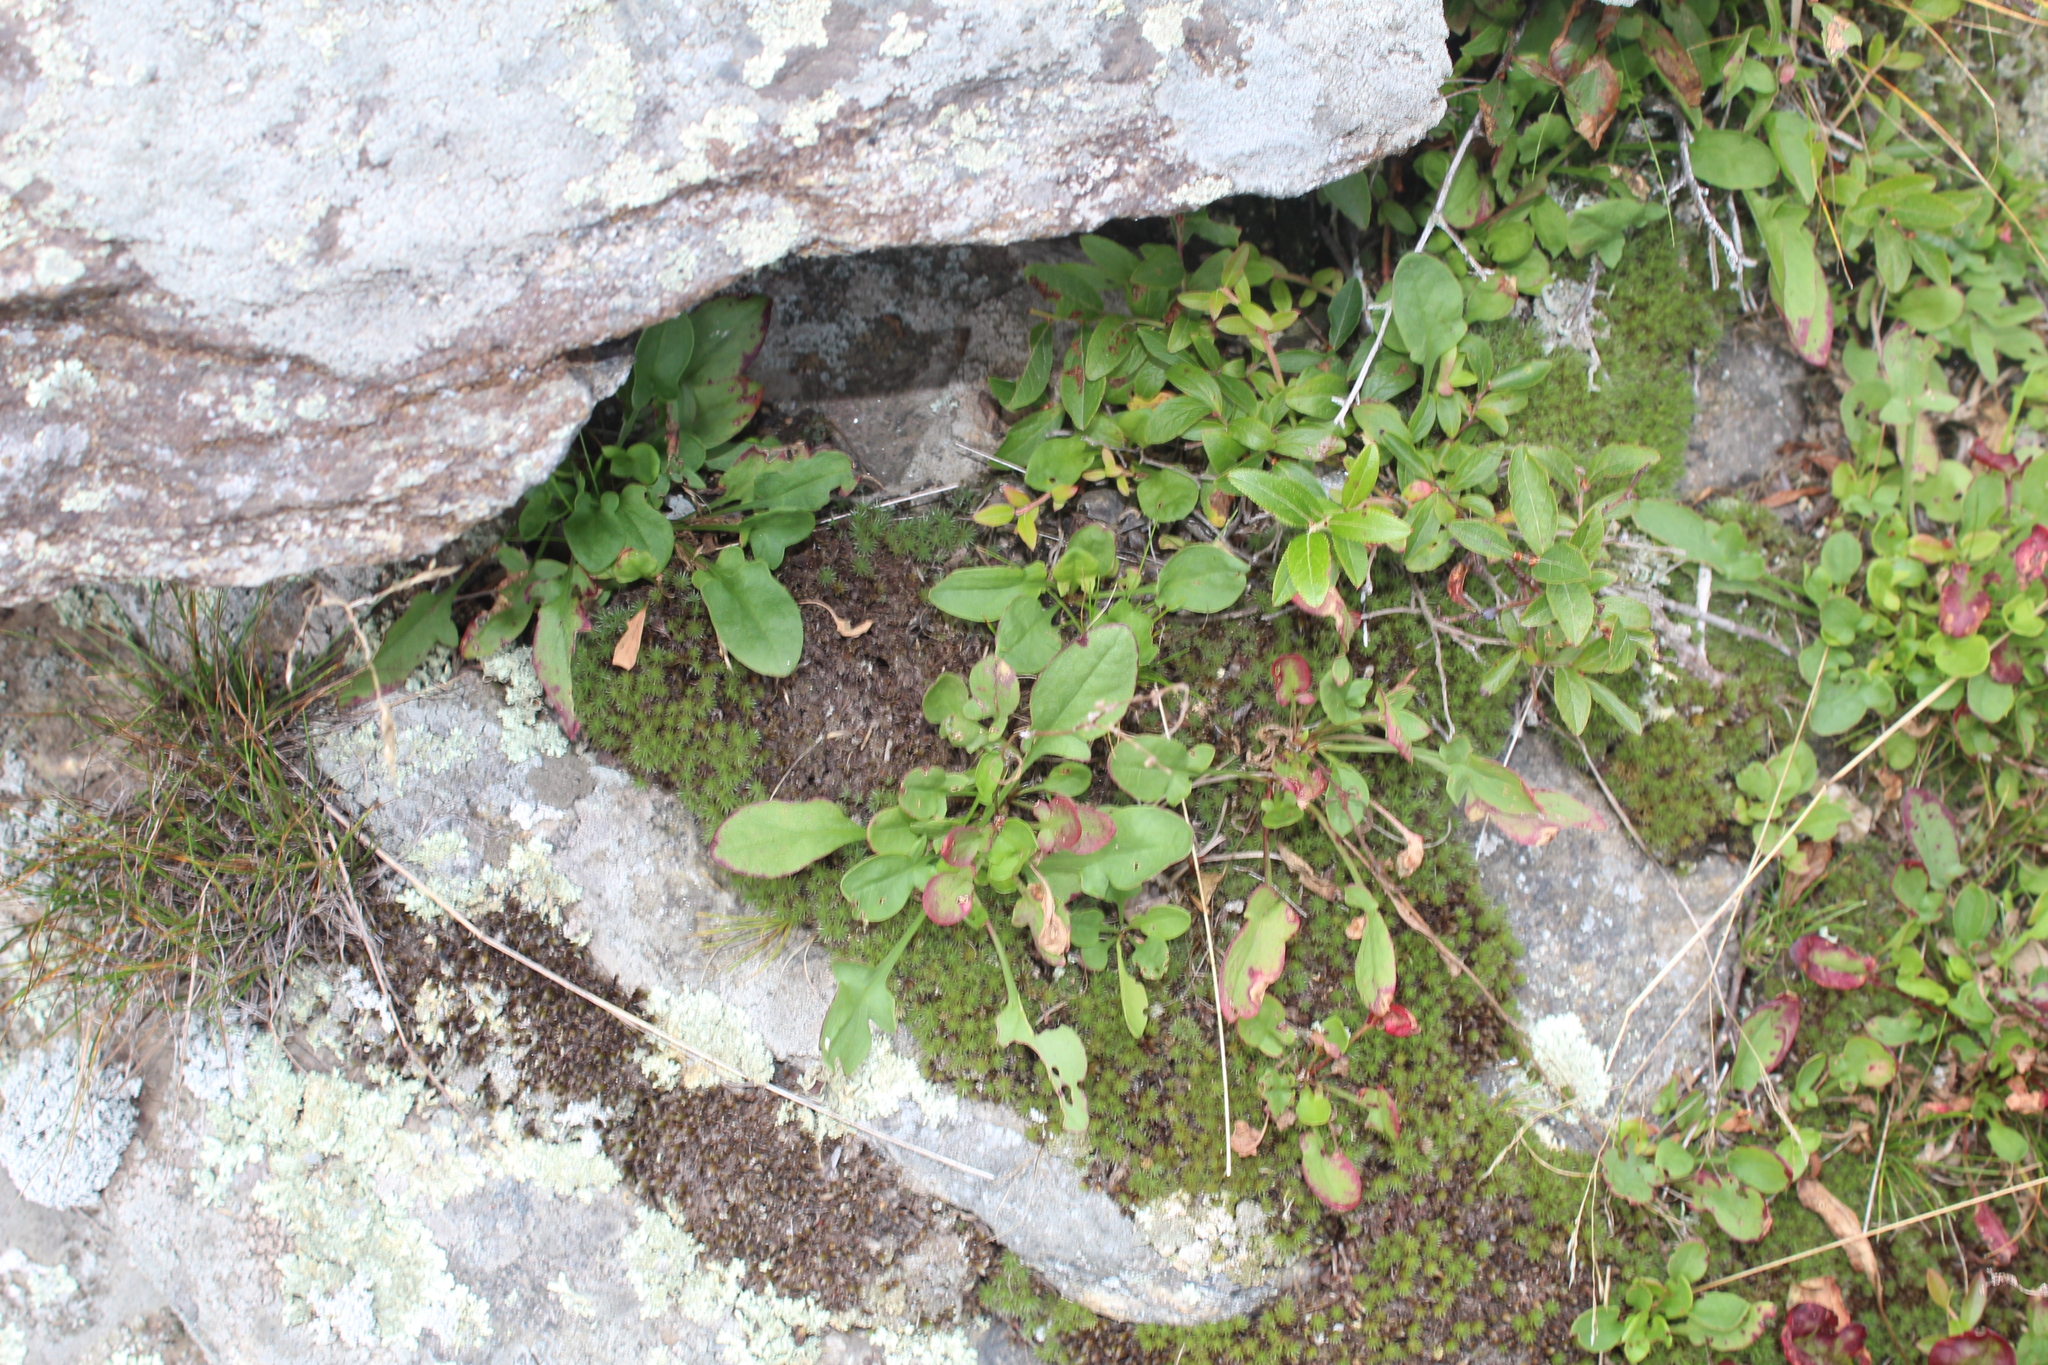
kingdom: Plantae
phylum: Tracheophyta
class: Magnoliopsida
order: Caryophyllales
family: Polygonaceae
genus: Rumex
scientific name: Rumex acetosella
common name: Common sheep sorrel
